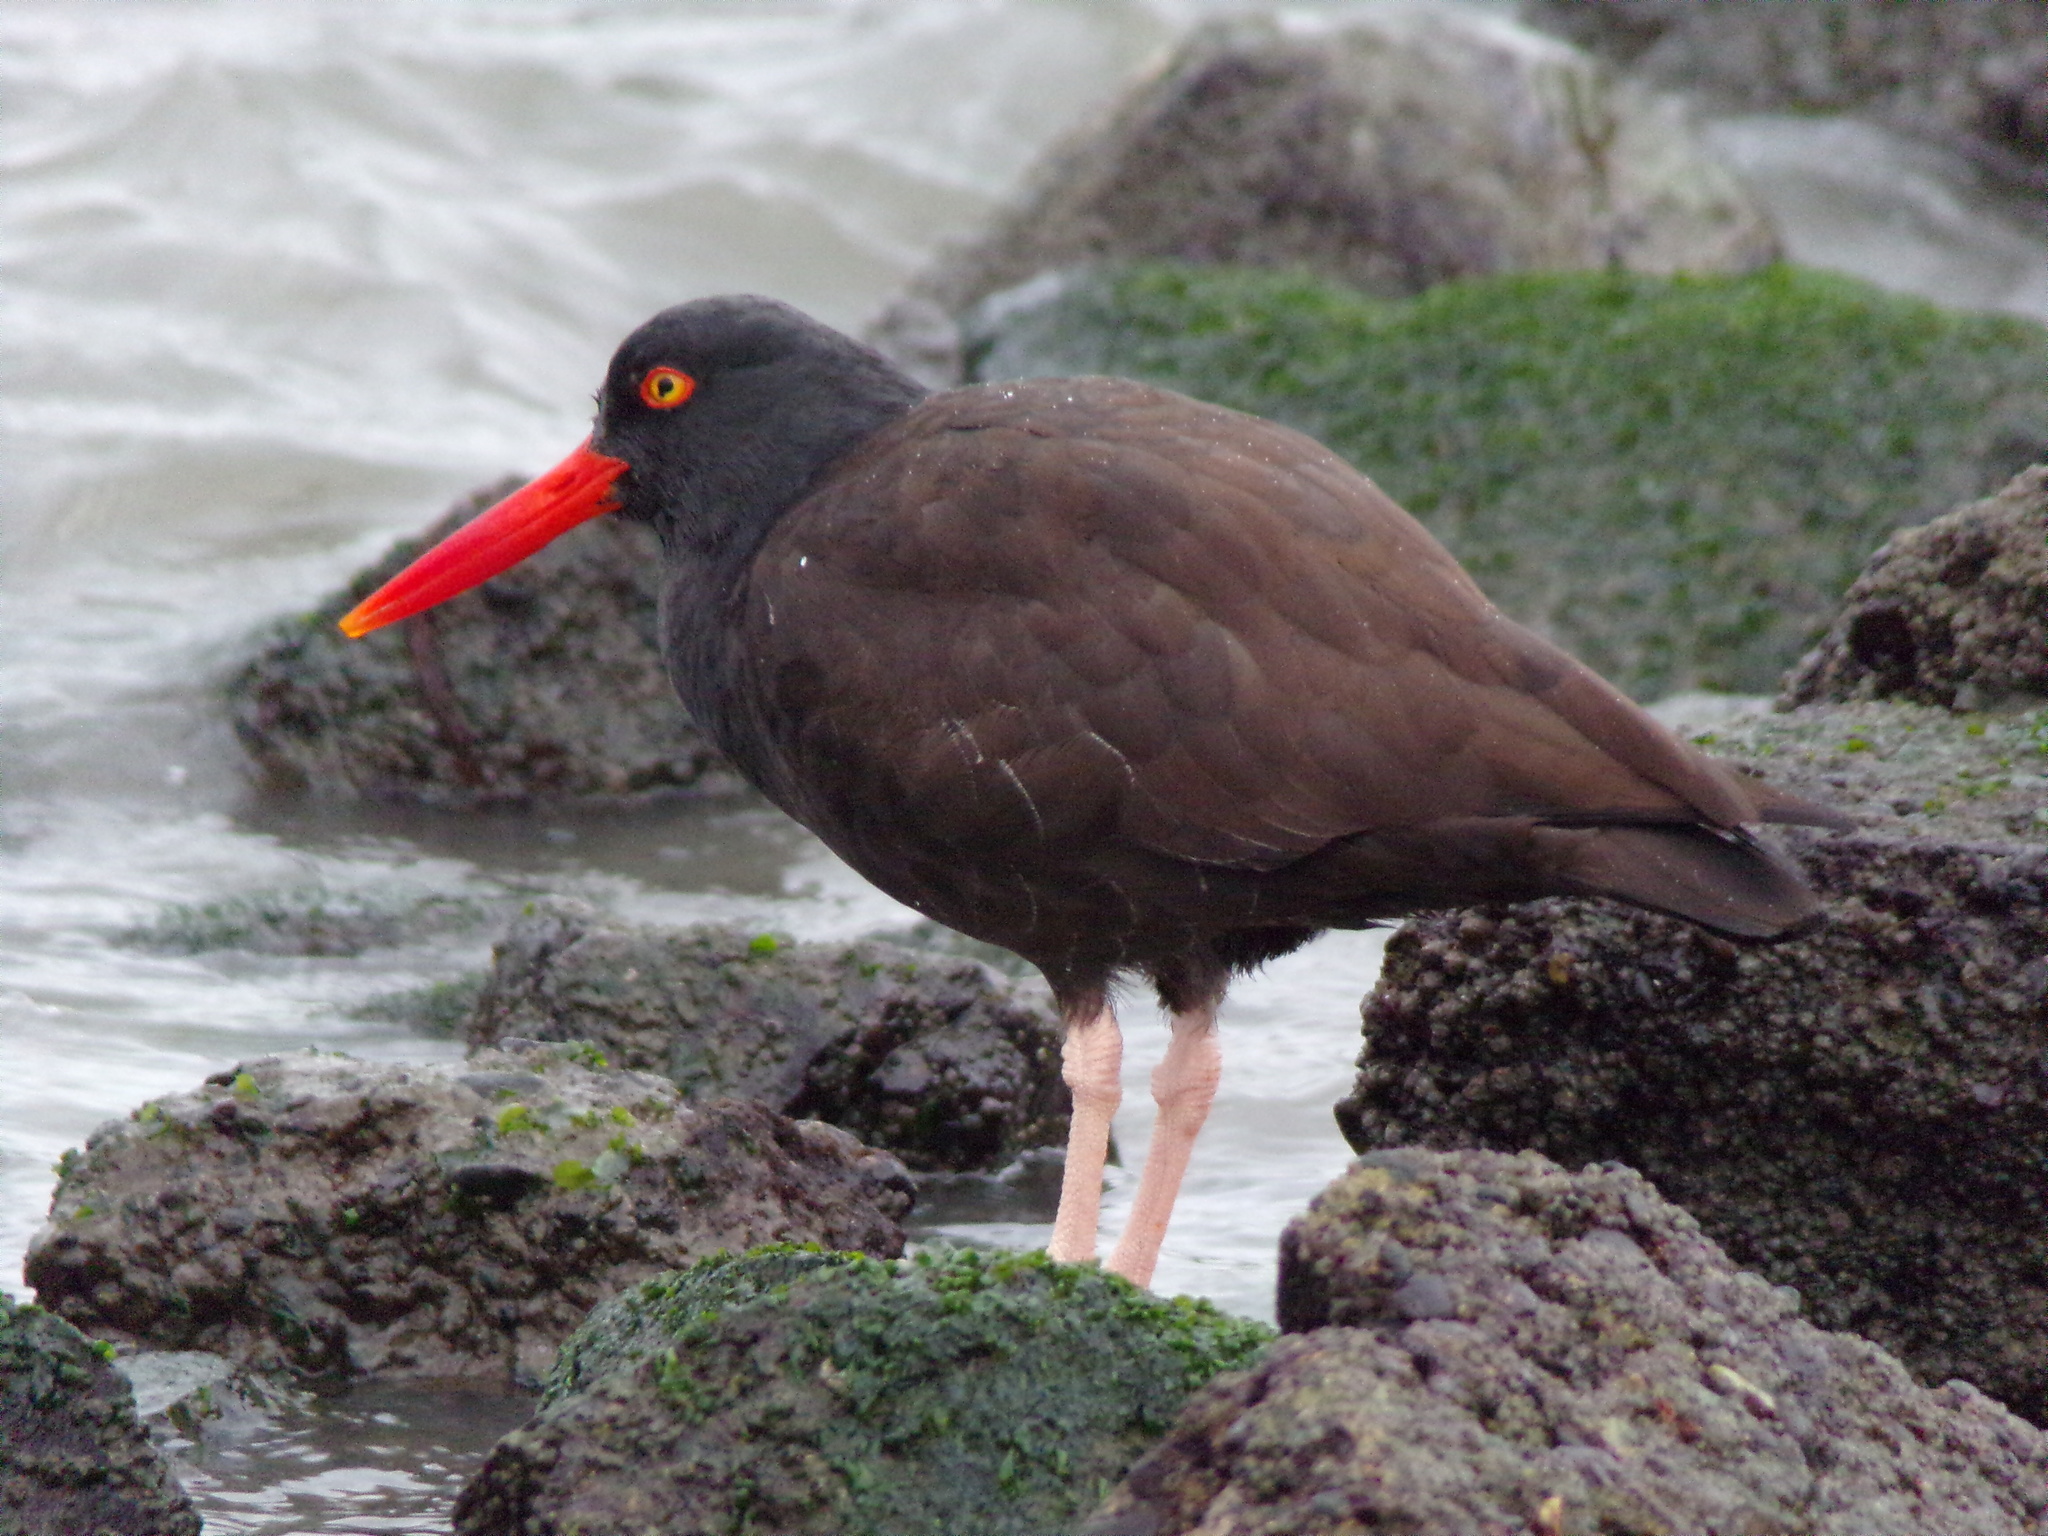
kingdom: Animalia
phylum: Chordata
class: Aves
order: Charadriiformes
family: Haematopodidae
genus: Haematopus
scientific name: Haematopus bachmani
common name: Black oystercatcher
